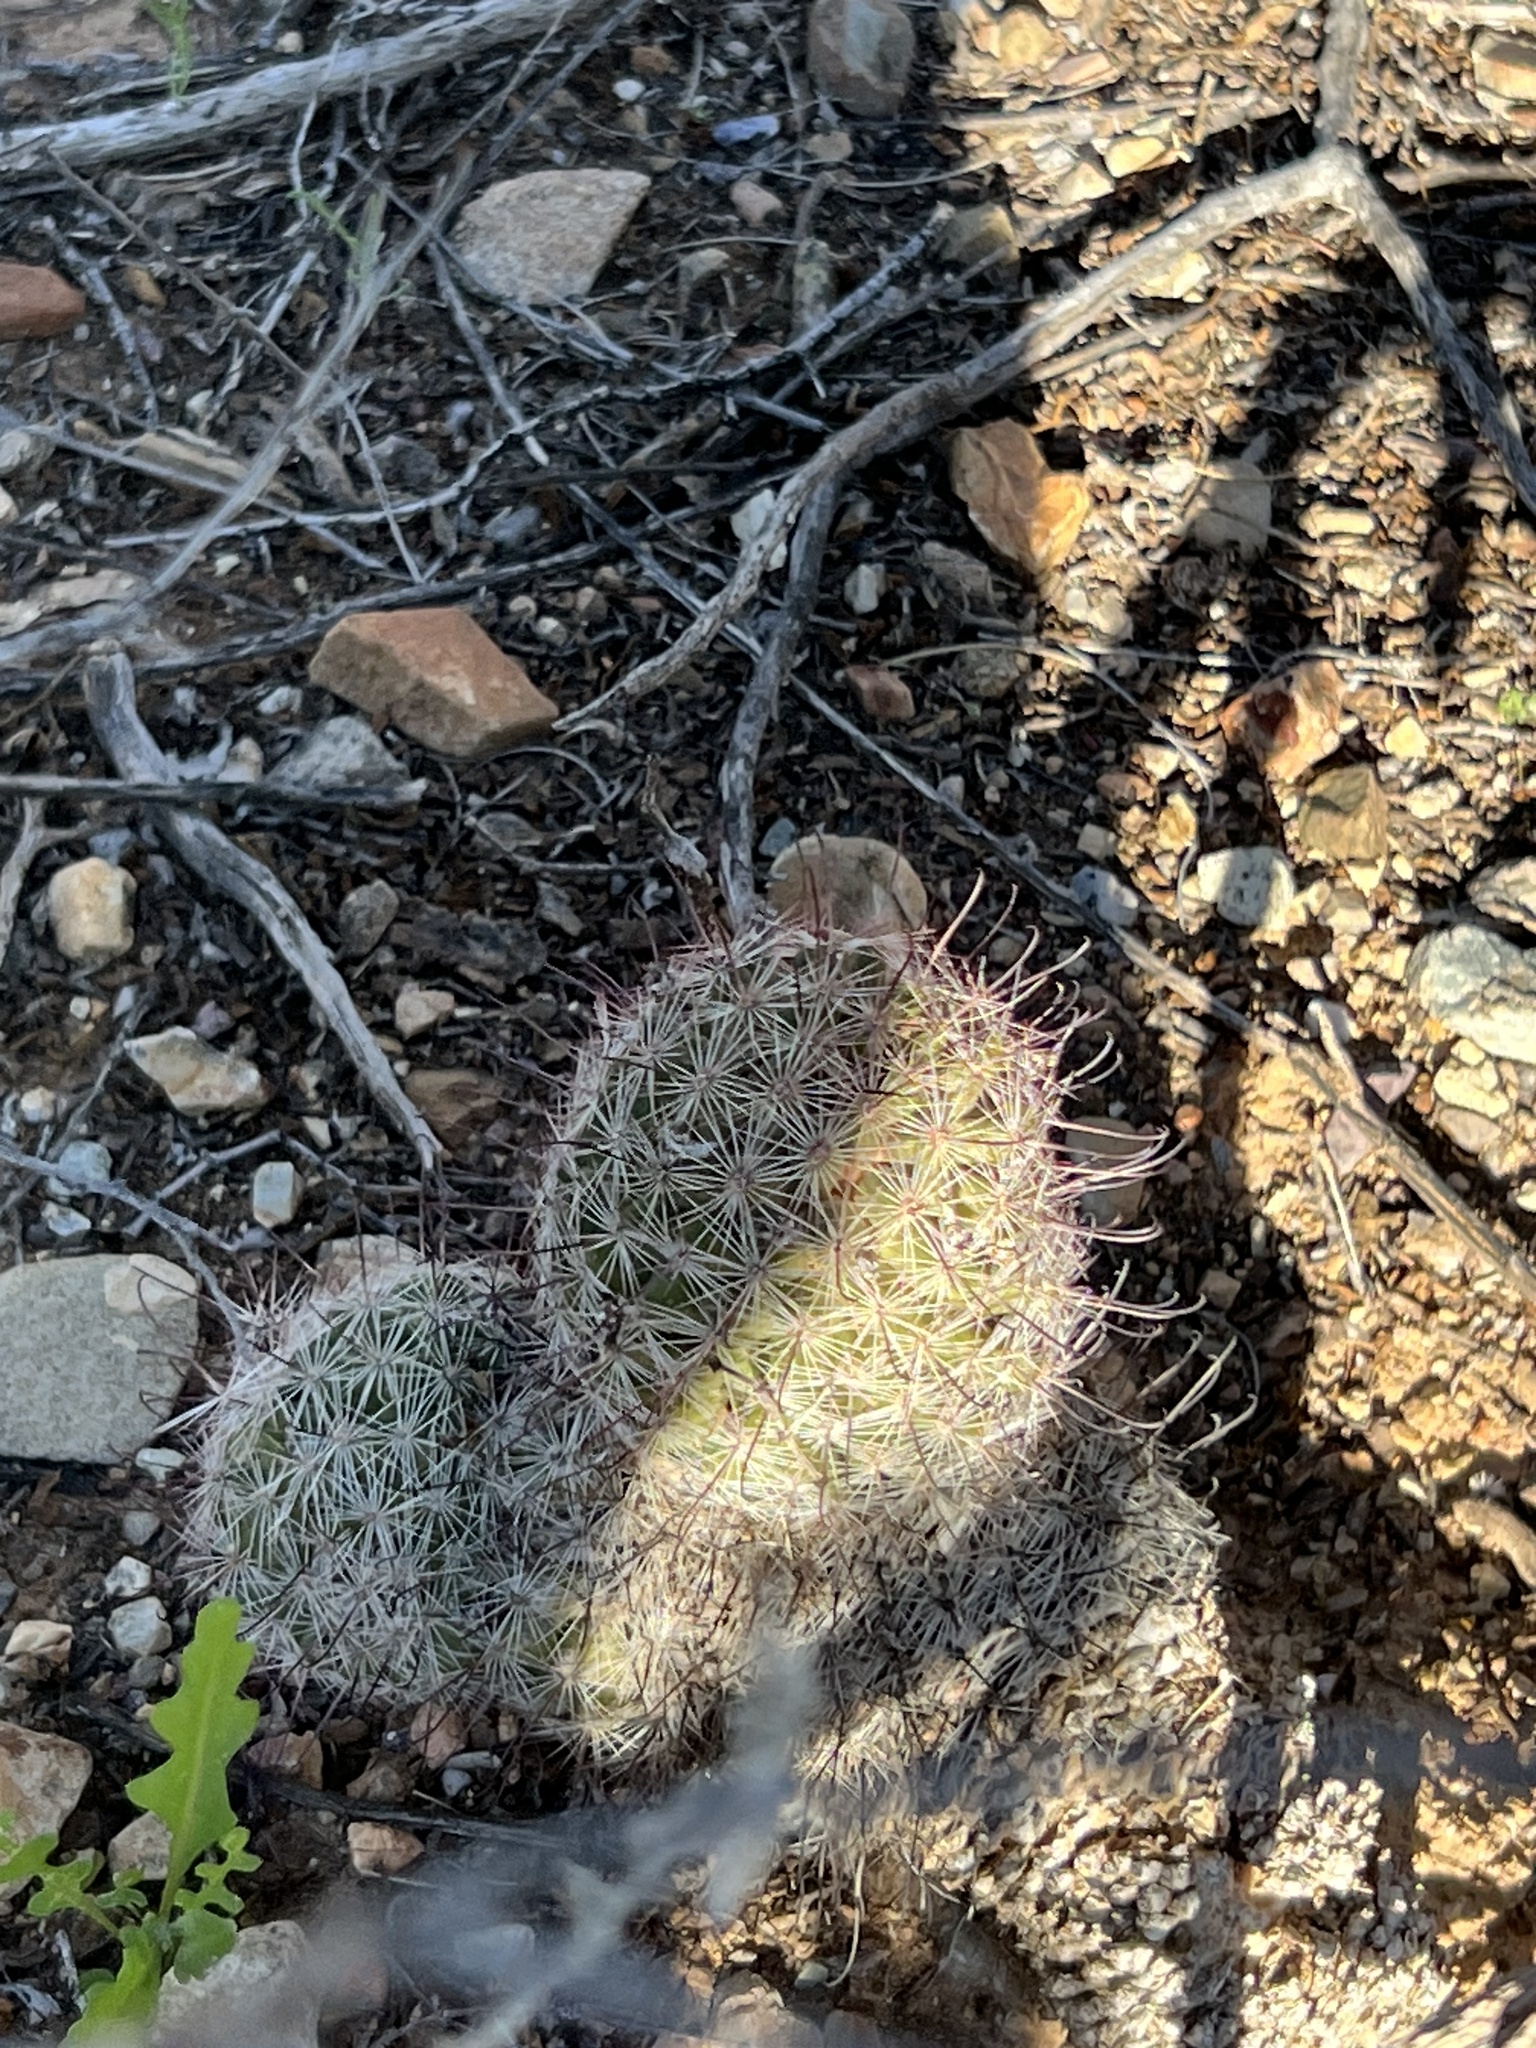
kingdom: Plantae
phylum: Tracheophyta
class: Magnoliopsida
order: Caryophyllales
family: Cactaceae
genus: Cochemiea
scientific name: Cochemiea grahamii
